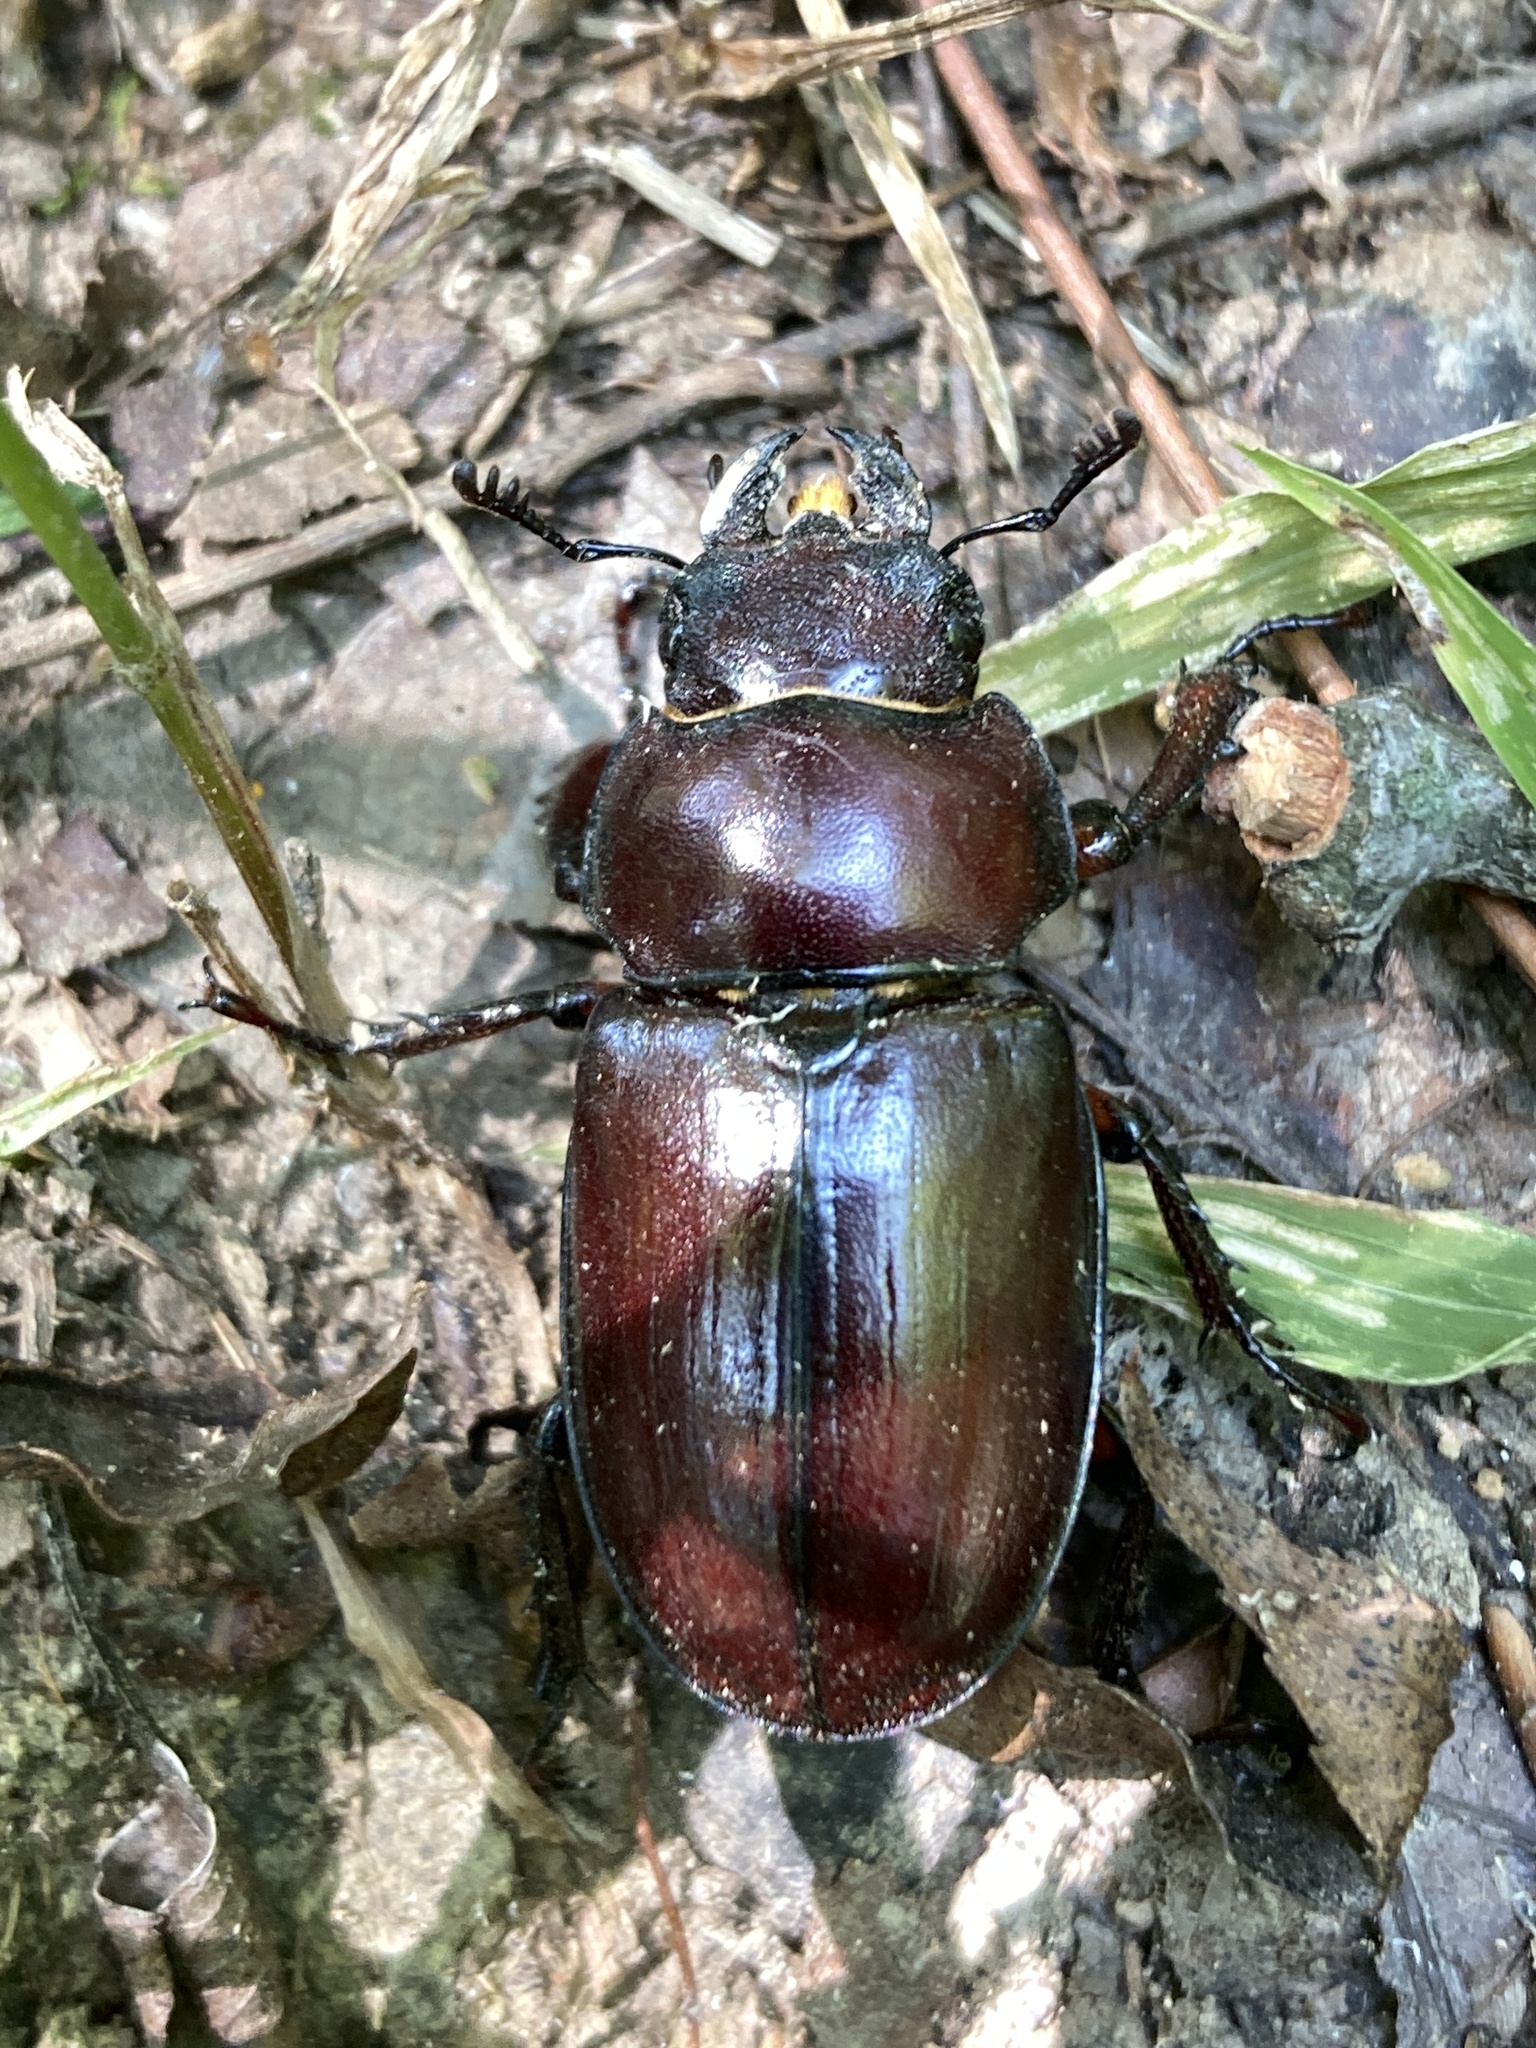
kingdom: Animalia
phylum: Arthropoda
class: Insecta
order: Coleoptera
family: Lucanidae
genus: Lucanus
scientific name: Lucanus capreolus
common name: Stag beetle
